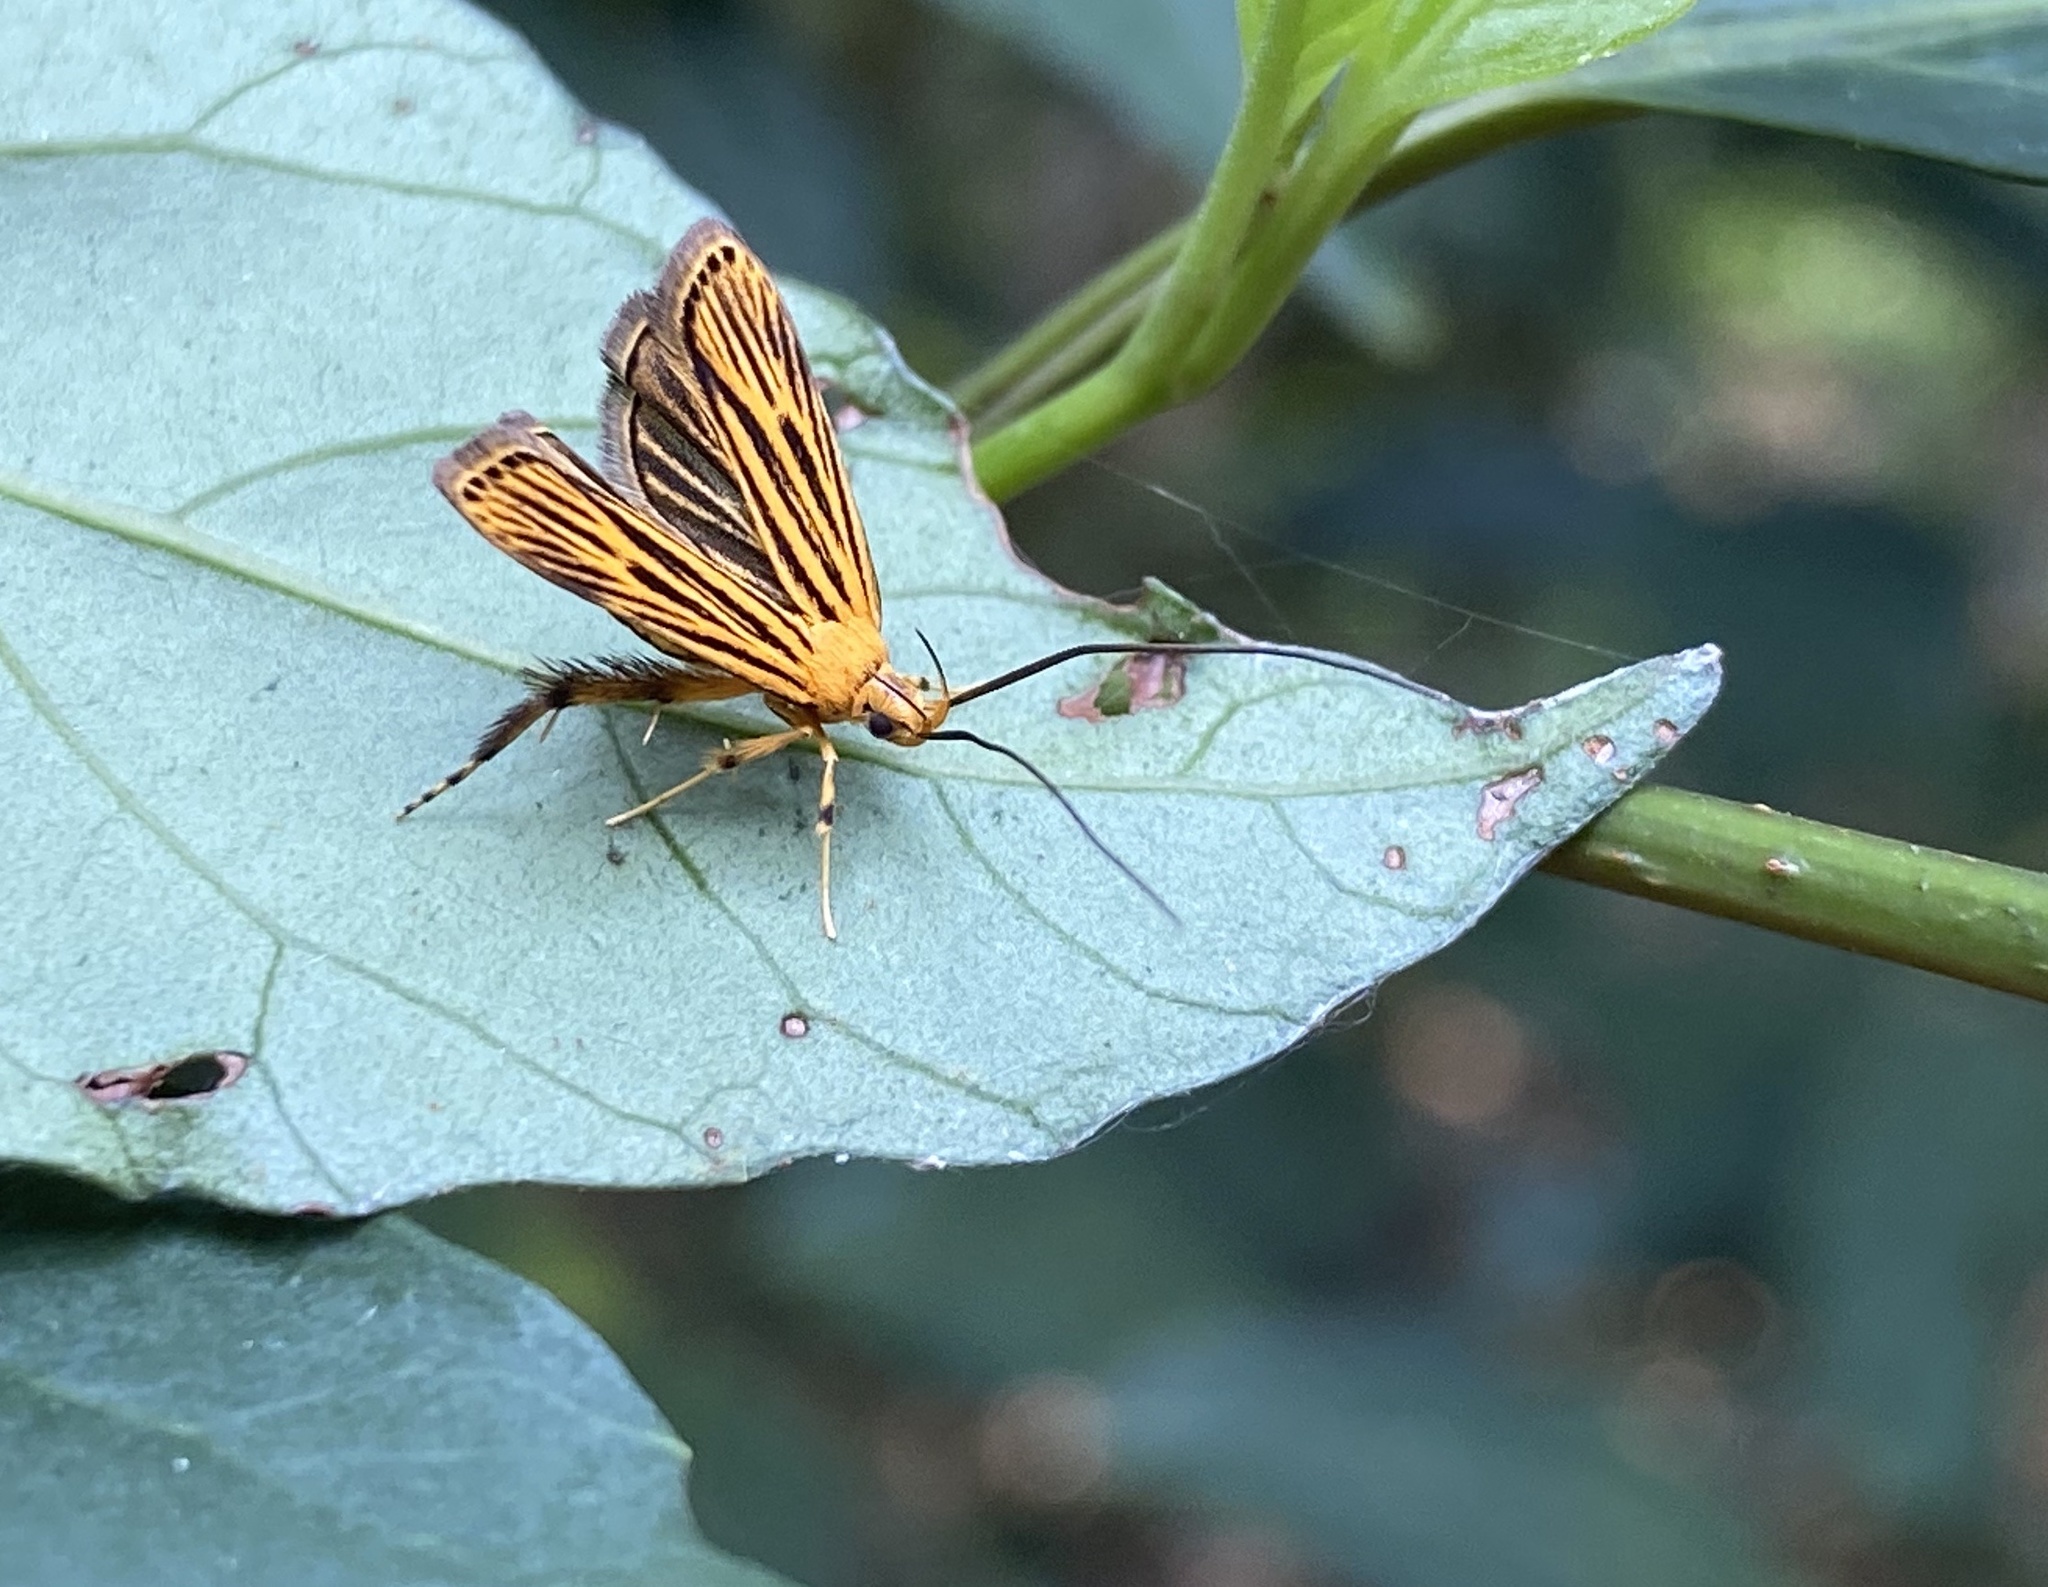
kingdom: Animalia
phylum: Arthropoda
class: Insecta
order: Lepidoptera
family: Lecithoceridae
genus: Caveana
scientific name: Caveana senuri
